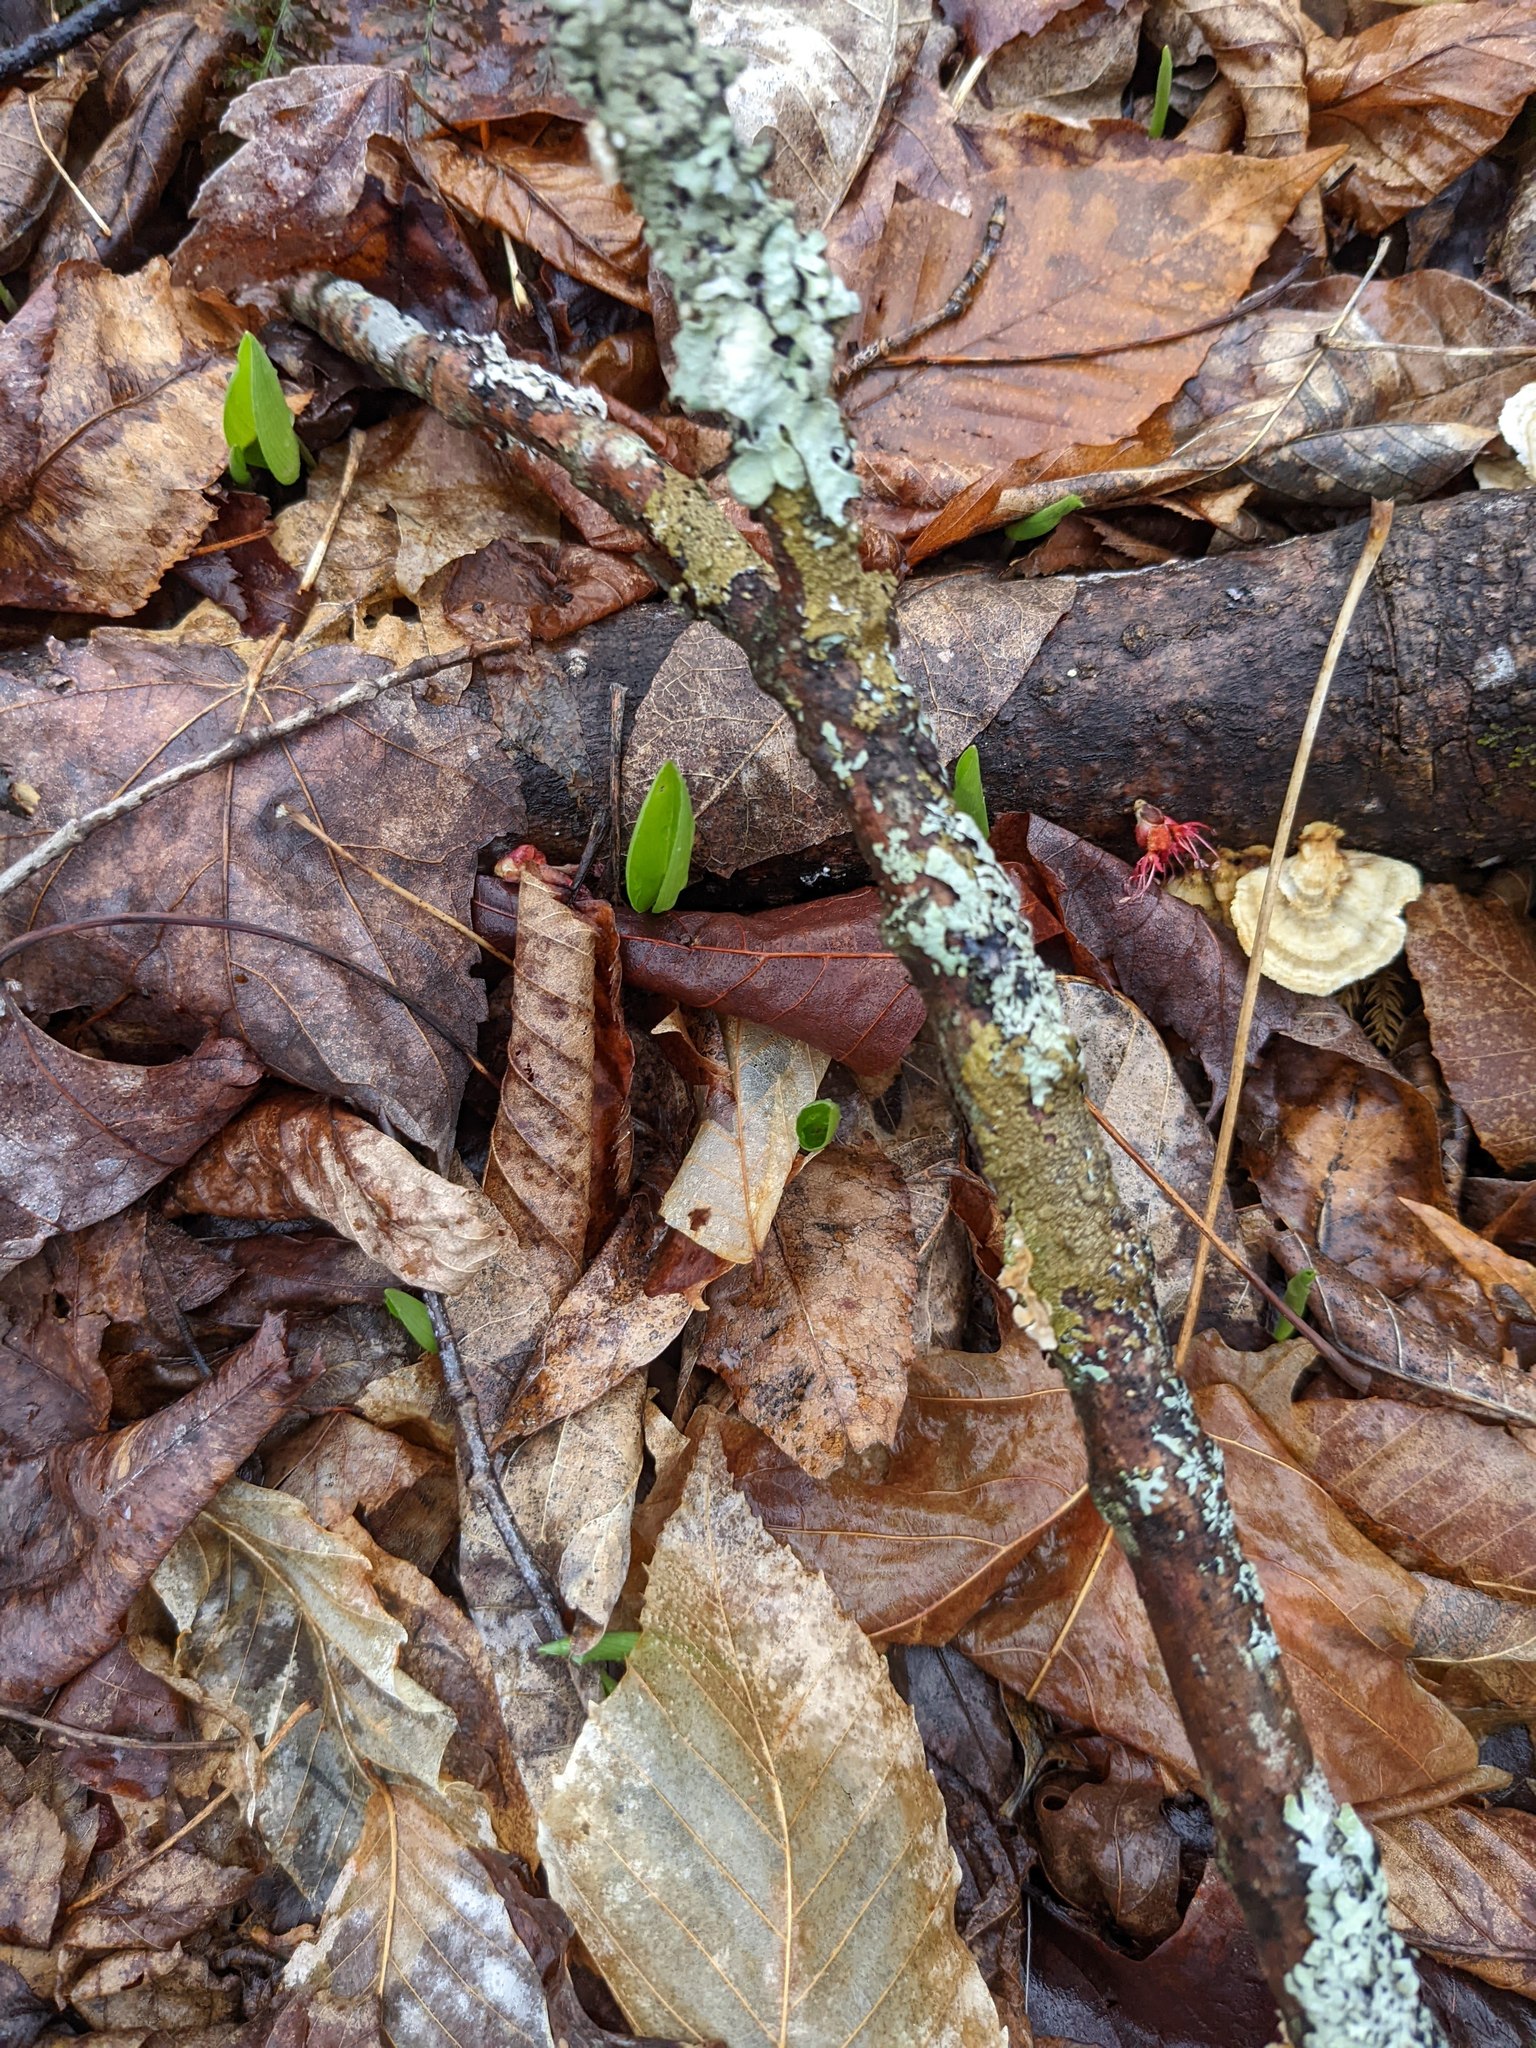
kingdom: Plantae
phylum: Tracheophyta
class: Liliopsida
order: Asparagales
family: Asparagaceae
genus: Maianthemum
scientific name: Maianthemum canadense
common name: False lily-of-the-valley
